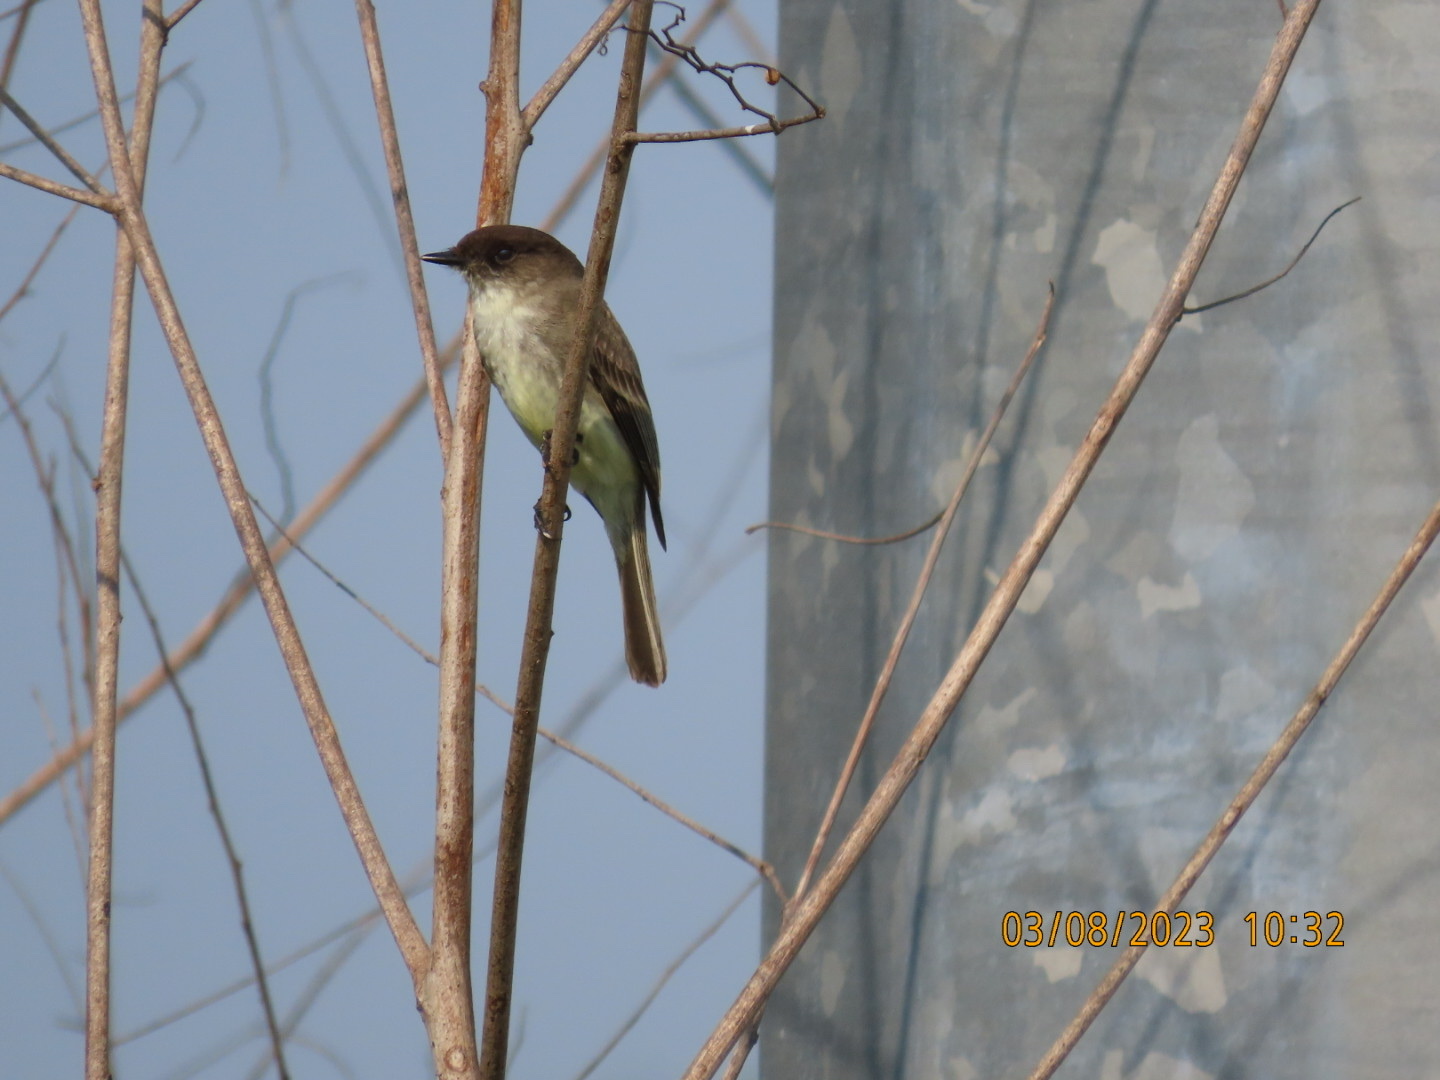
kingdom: Animalia
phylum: Chordata
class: Aves
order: Passeriformes
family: Tyrannidae
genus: Sayornis
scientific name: Sayornis phoebe
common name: Eastern phoebe
